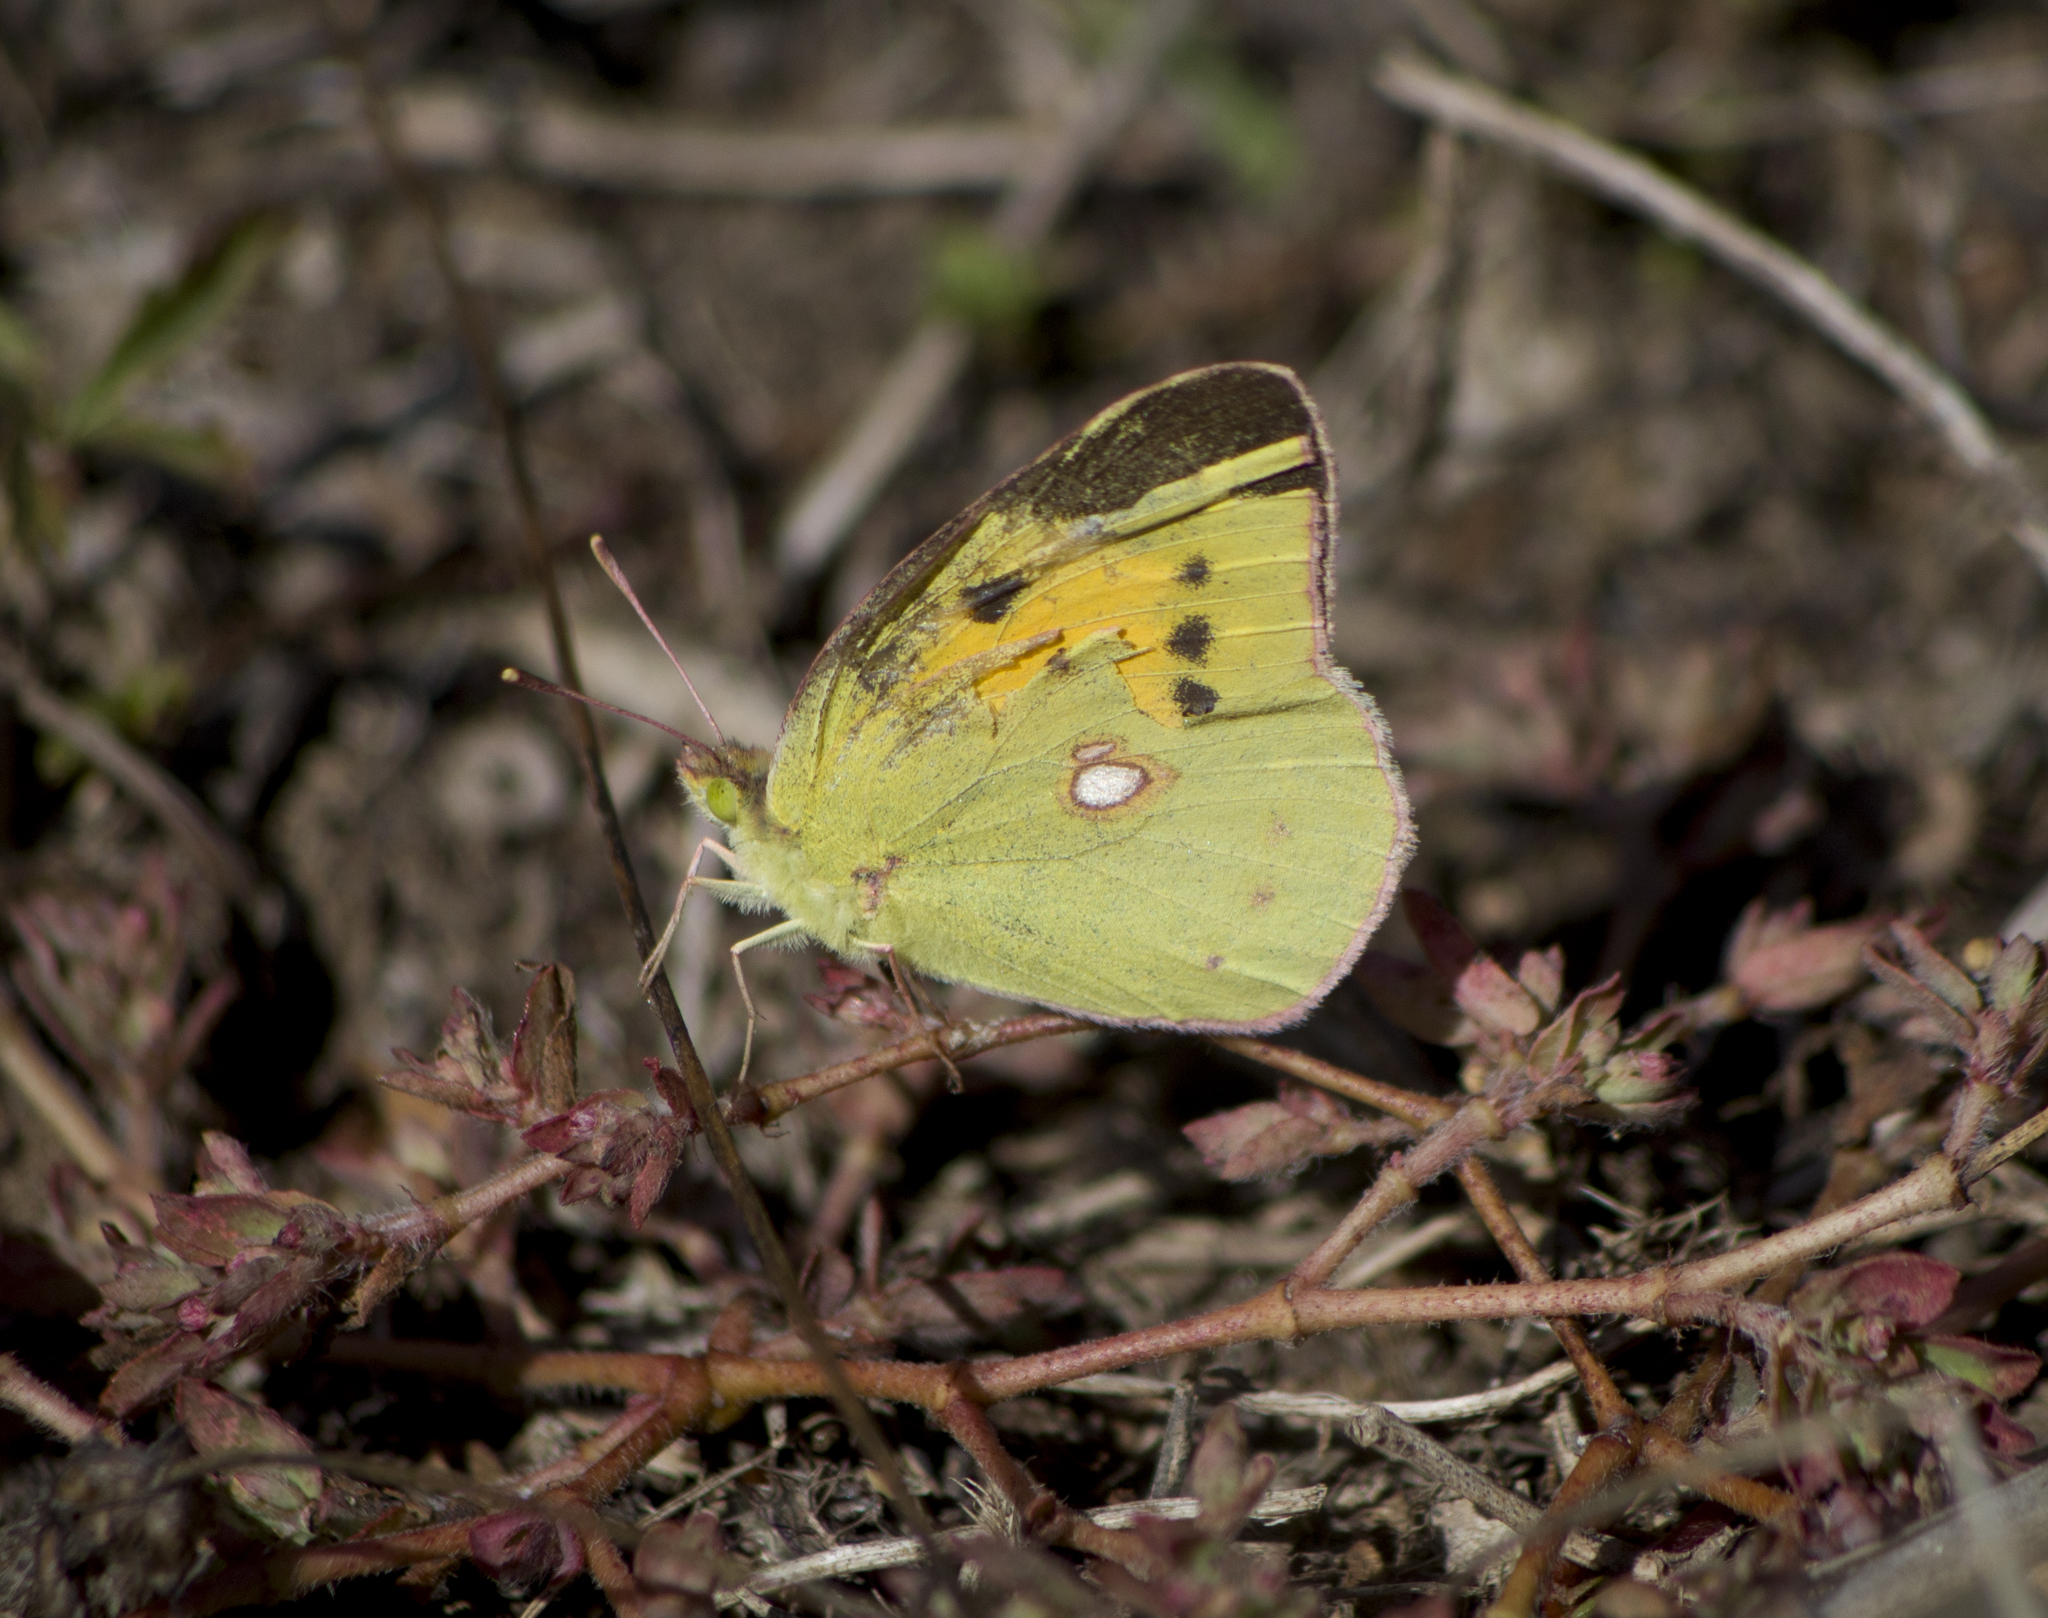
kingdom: Animalia
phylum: Arthropoda
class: Insecta
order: Lepidoptera
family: Pieridae
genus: Colias
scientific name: Colias croceus
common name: Clouded yellow
